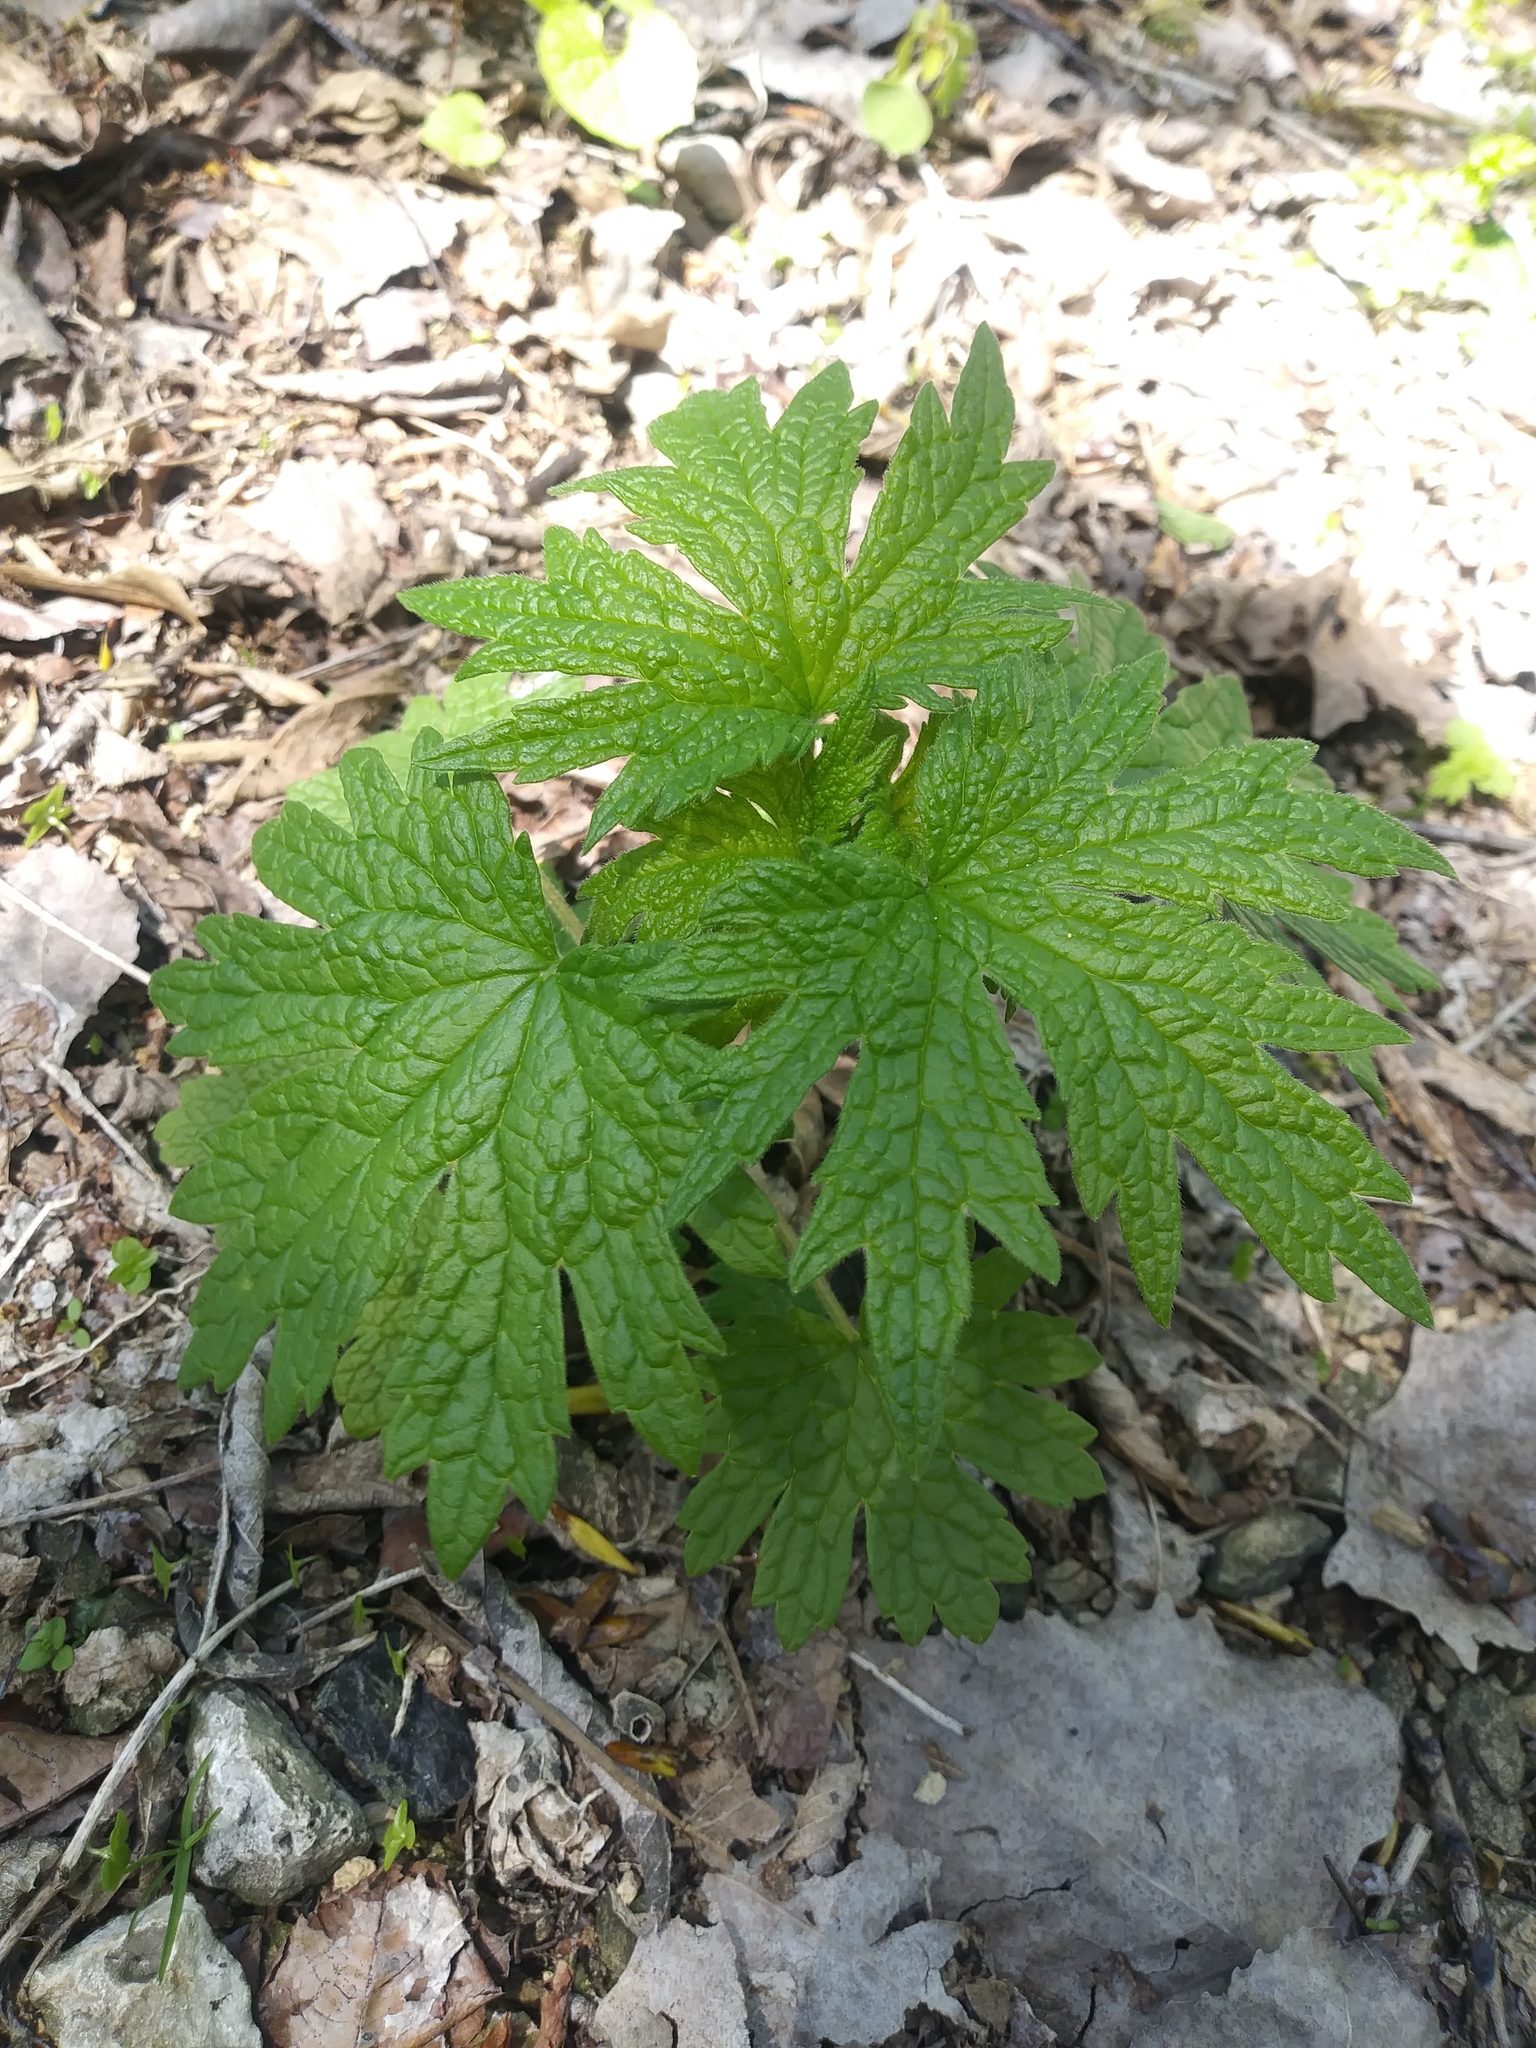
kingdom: Plantae
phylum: Tracheophyta
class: Magnoliopsida
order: Lamiales
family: Lamiaceae
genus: Leonurus
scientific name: Leonurus cardiaca
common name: Motherwort
